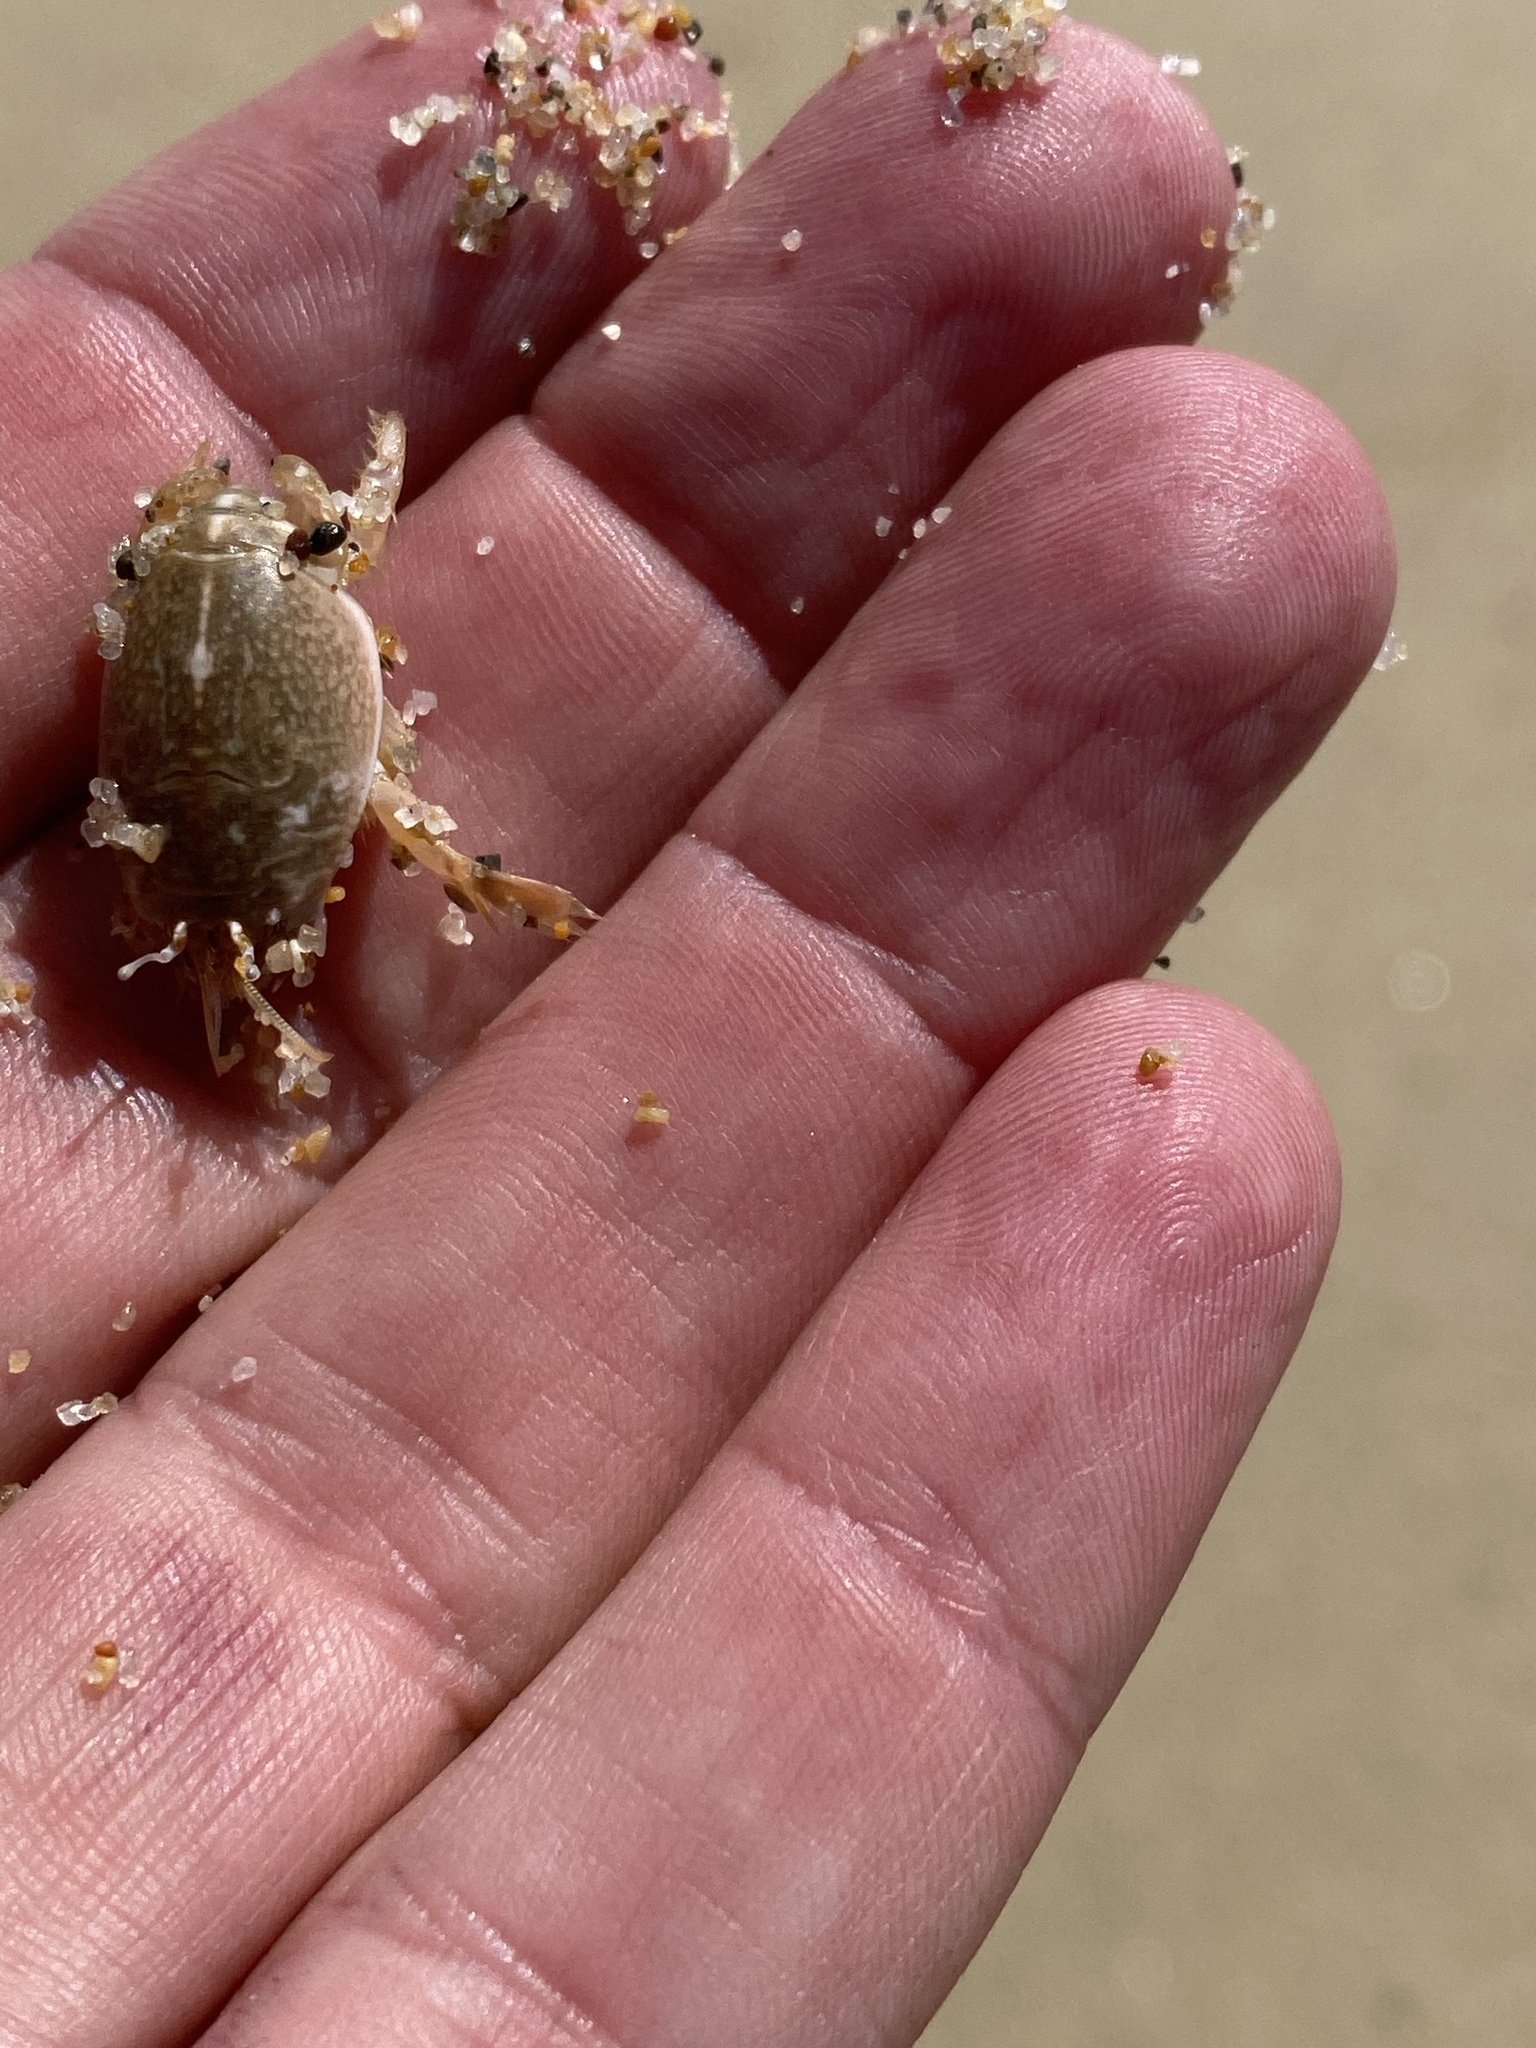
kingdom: Animalia
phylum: Arthropoda
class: Malacostraca
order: Decapoda
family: Hippidae
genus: Emerita
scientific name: Emerita analoga
